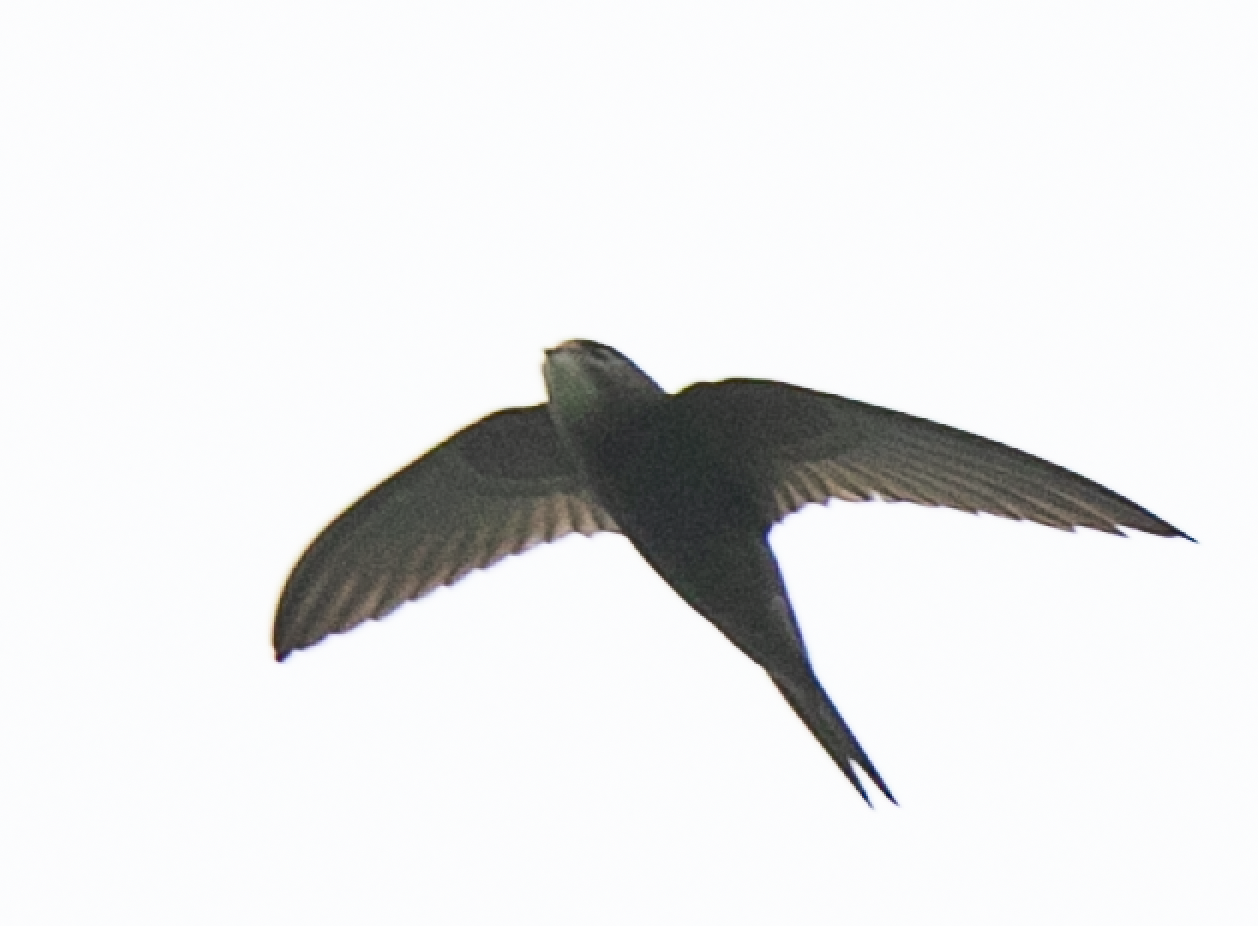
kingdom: Animalia
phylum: Chordata
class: Aves
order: Apodiformes
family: Apodidae
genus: Apus
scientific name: Apus apus
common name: Common swift
